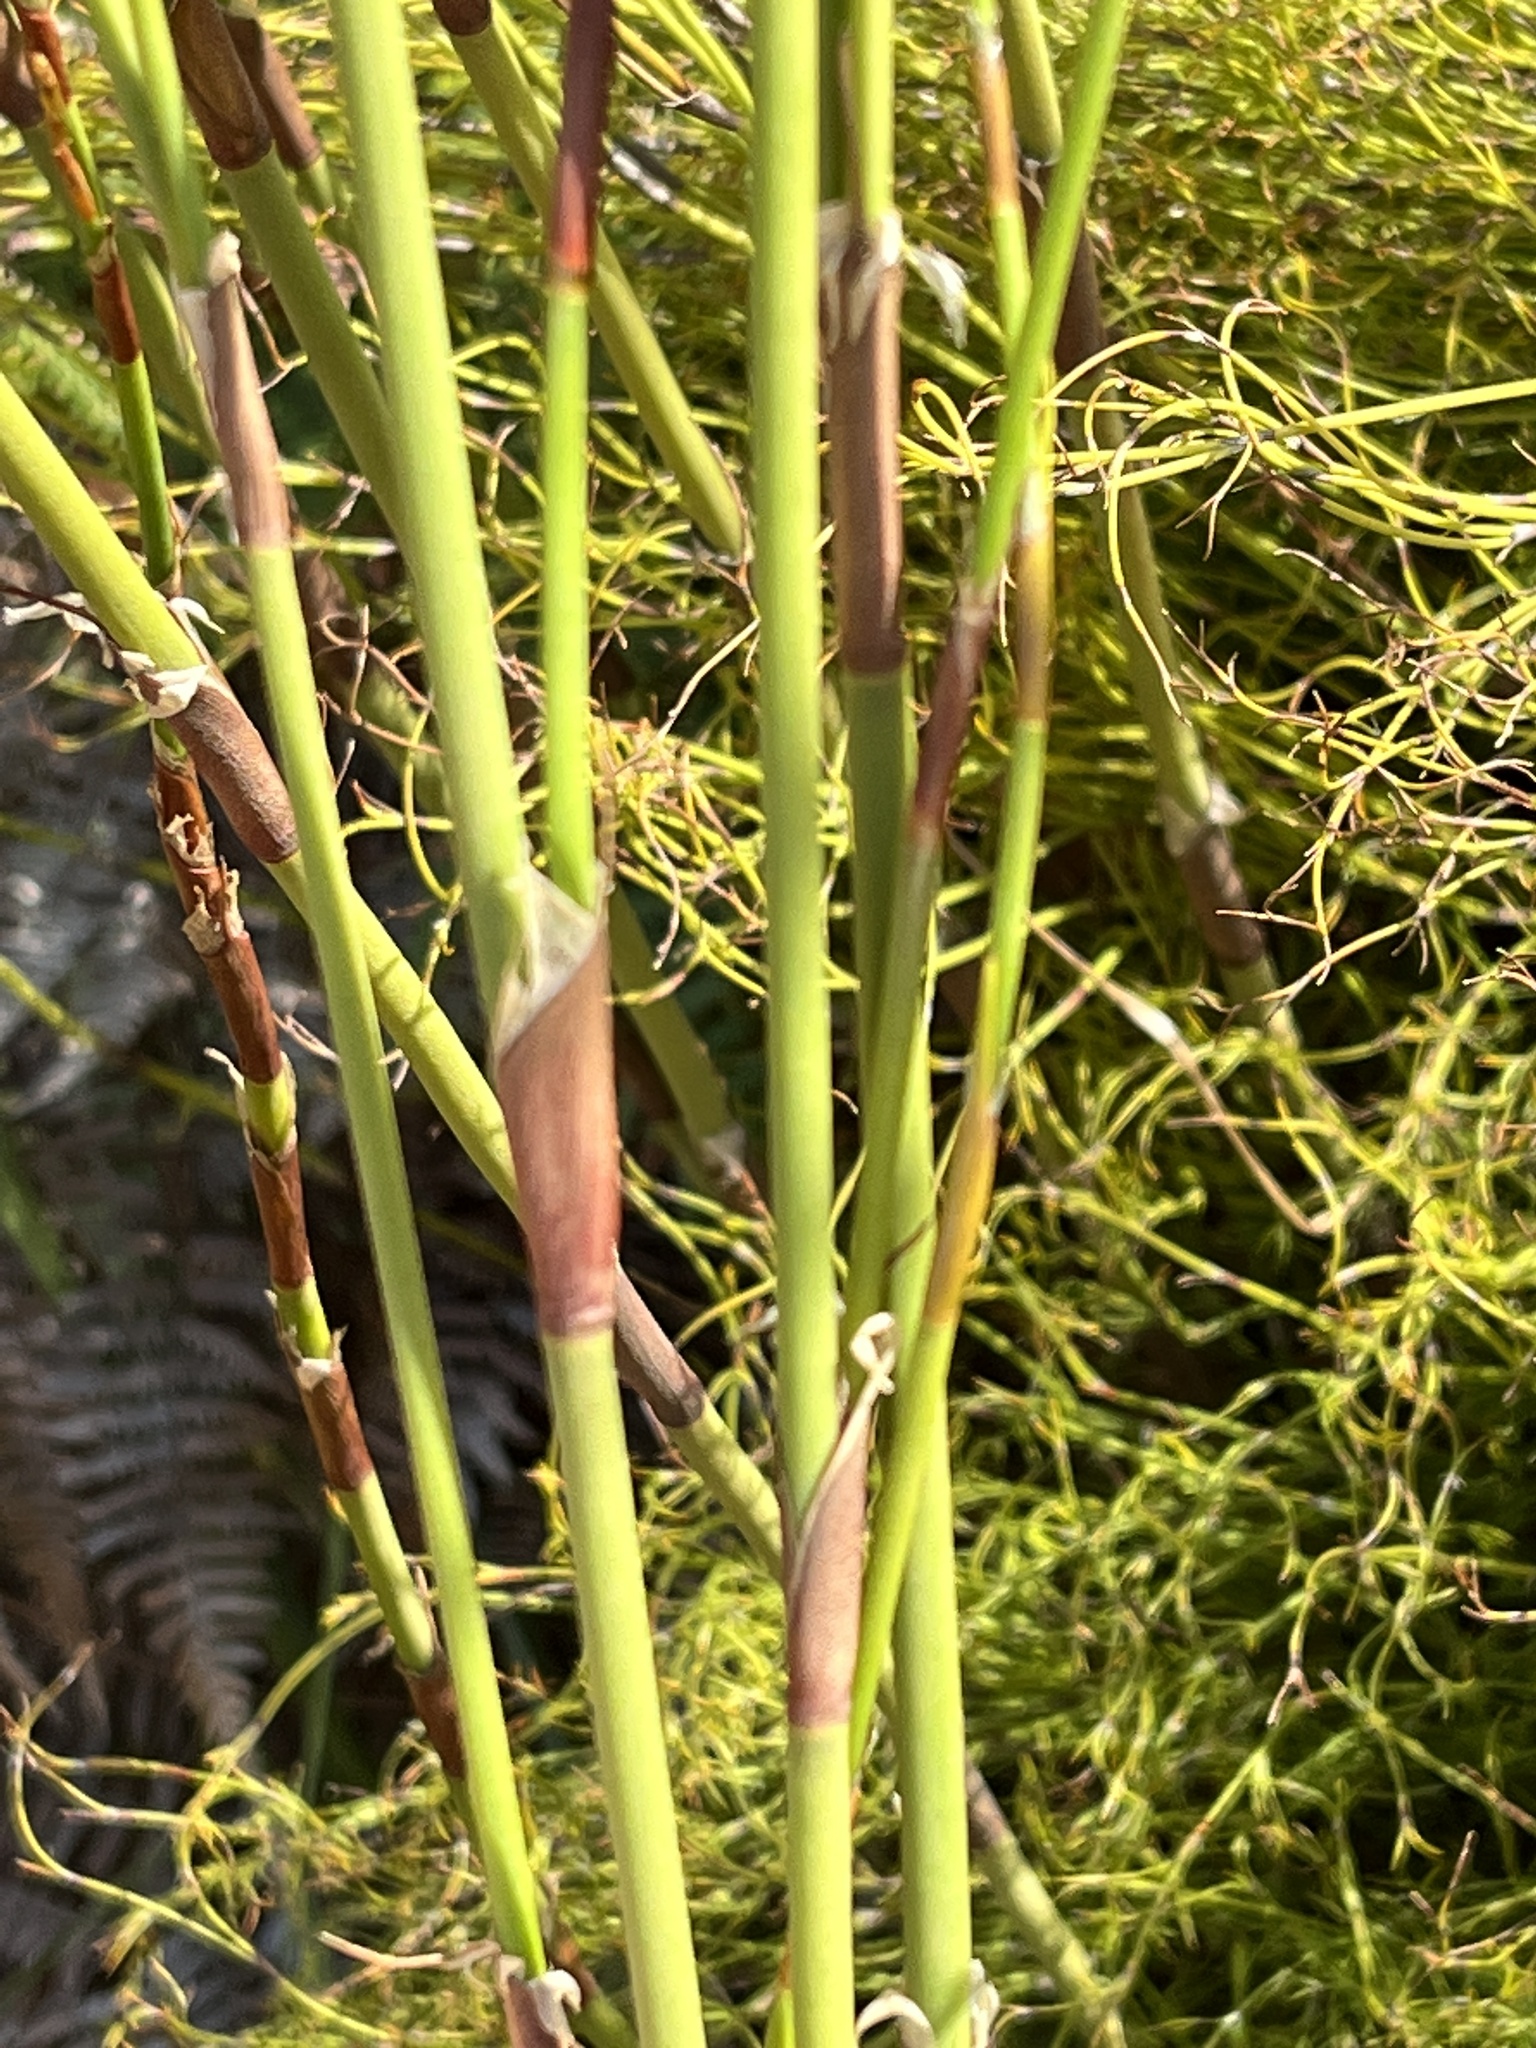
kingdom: Plantae
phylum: Tracheophyta
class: Liliopsida
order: Poales
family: Restionaceae
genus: Restio
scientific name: Restio multiflorus
